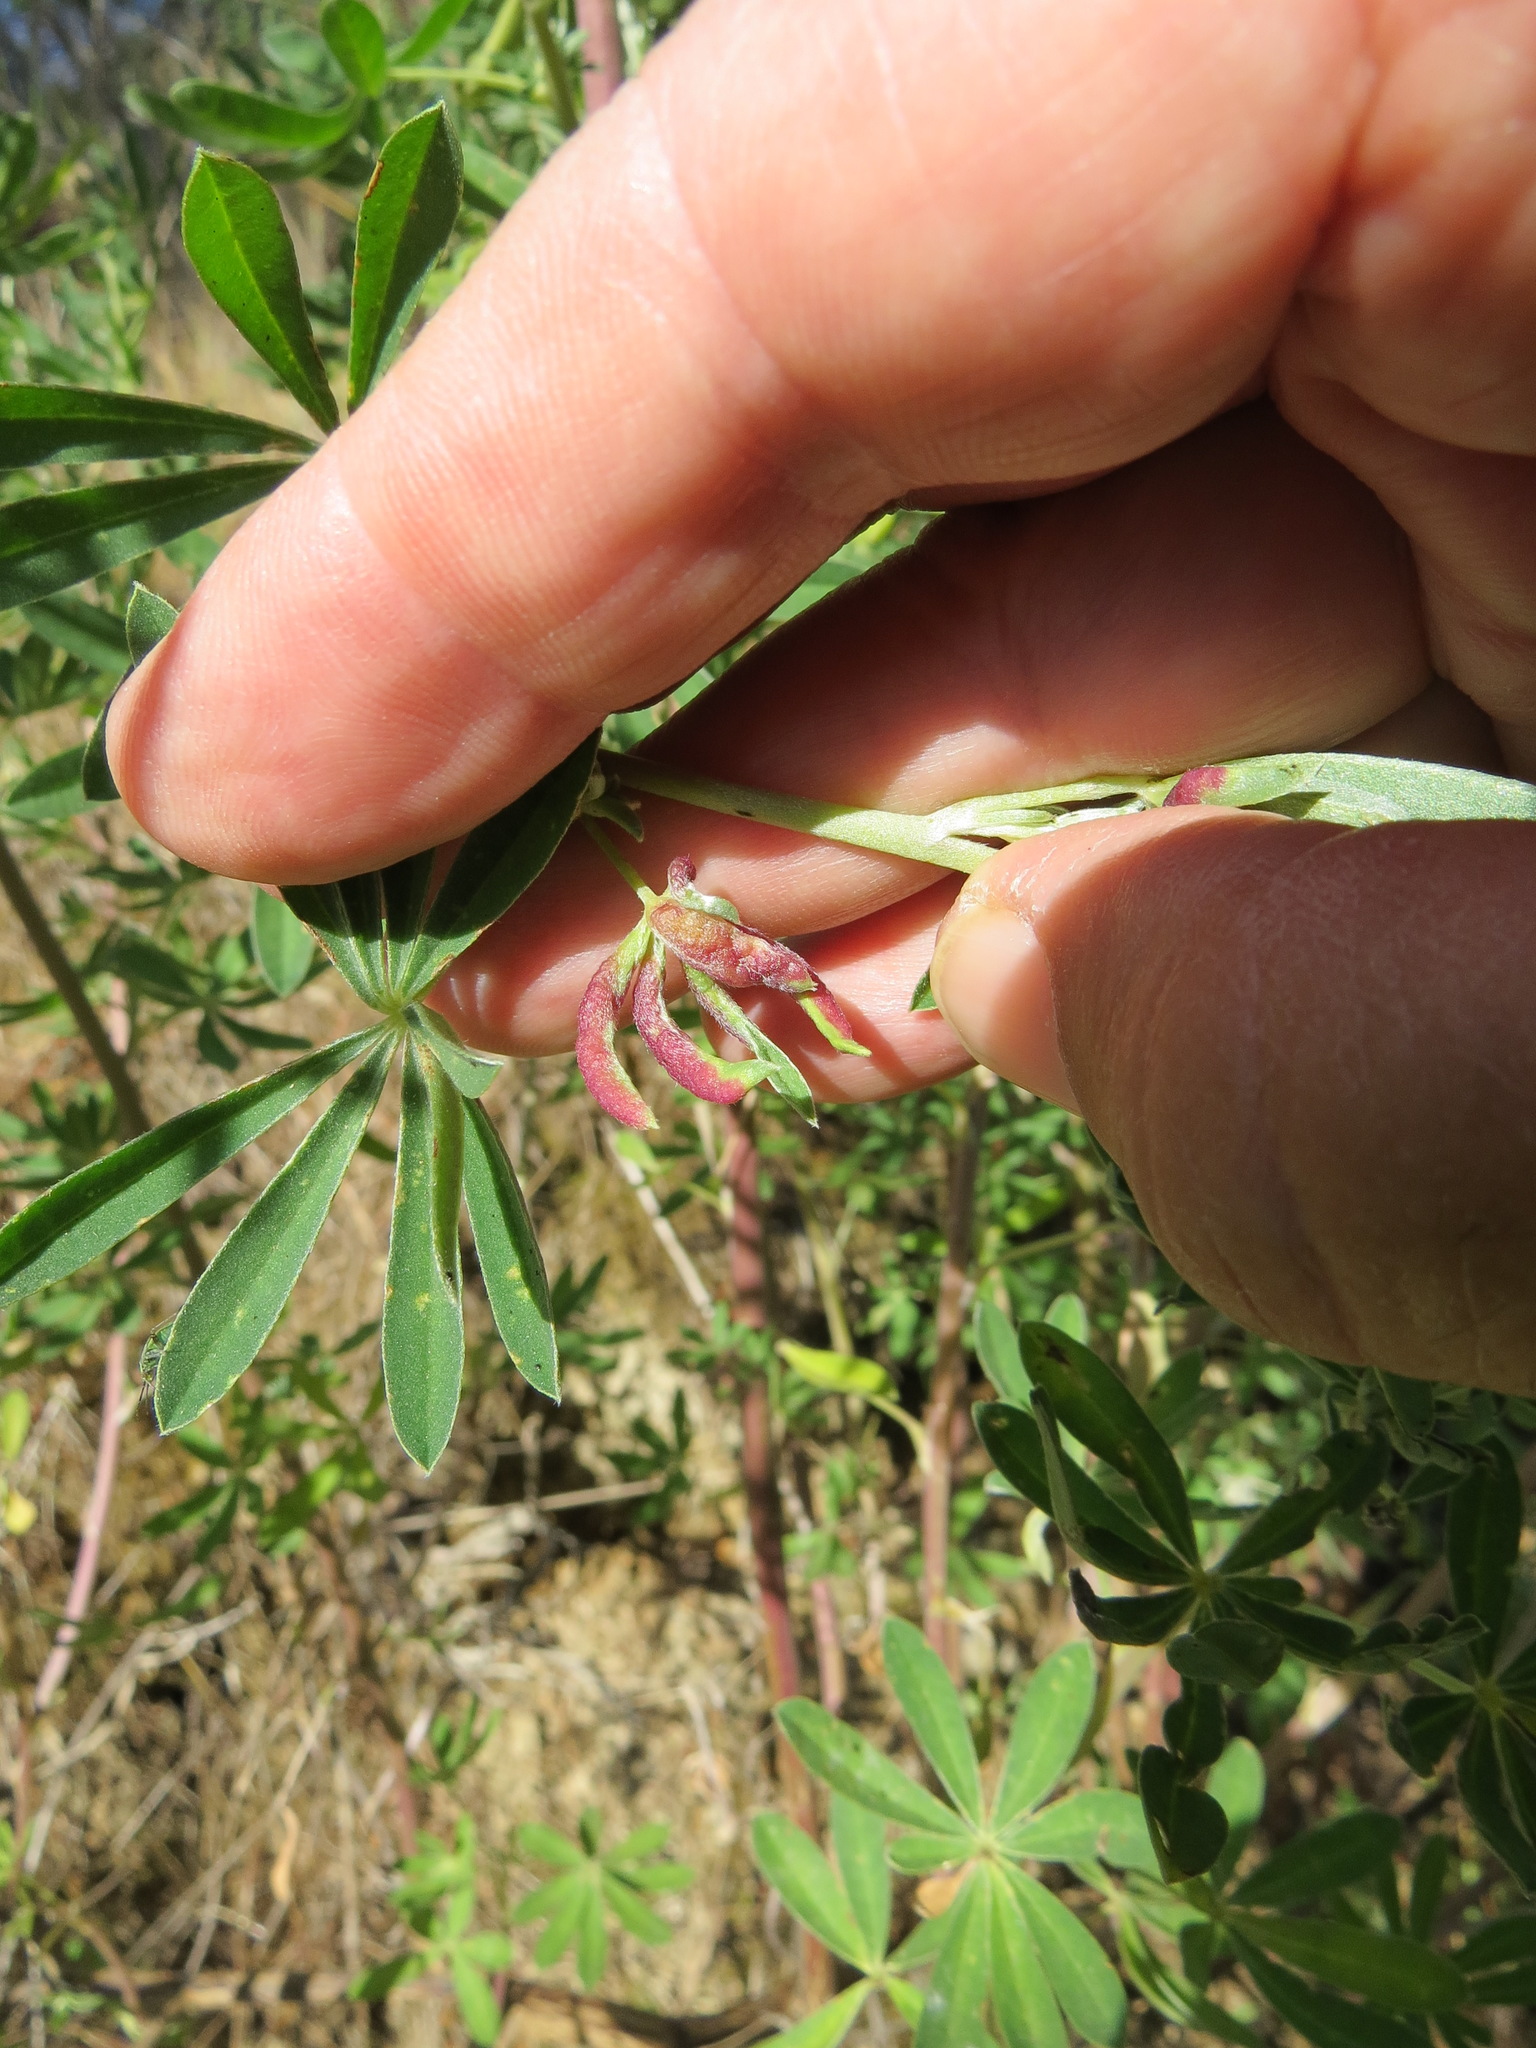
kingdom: Animalia
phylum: Arthropoda
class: Insecta
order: Diptera
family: Cecidomyiidae
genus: Dasineura
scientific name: Dasineura lupinorum
